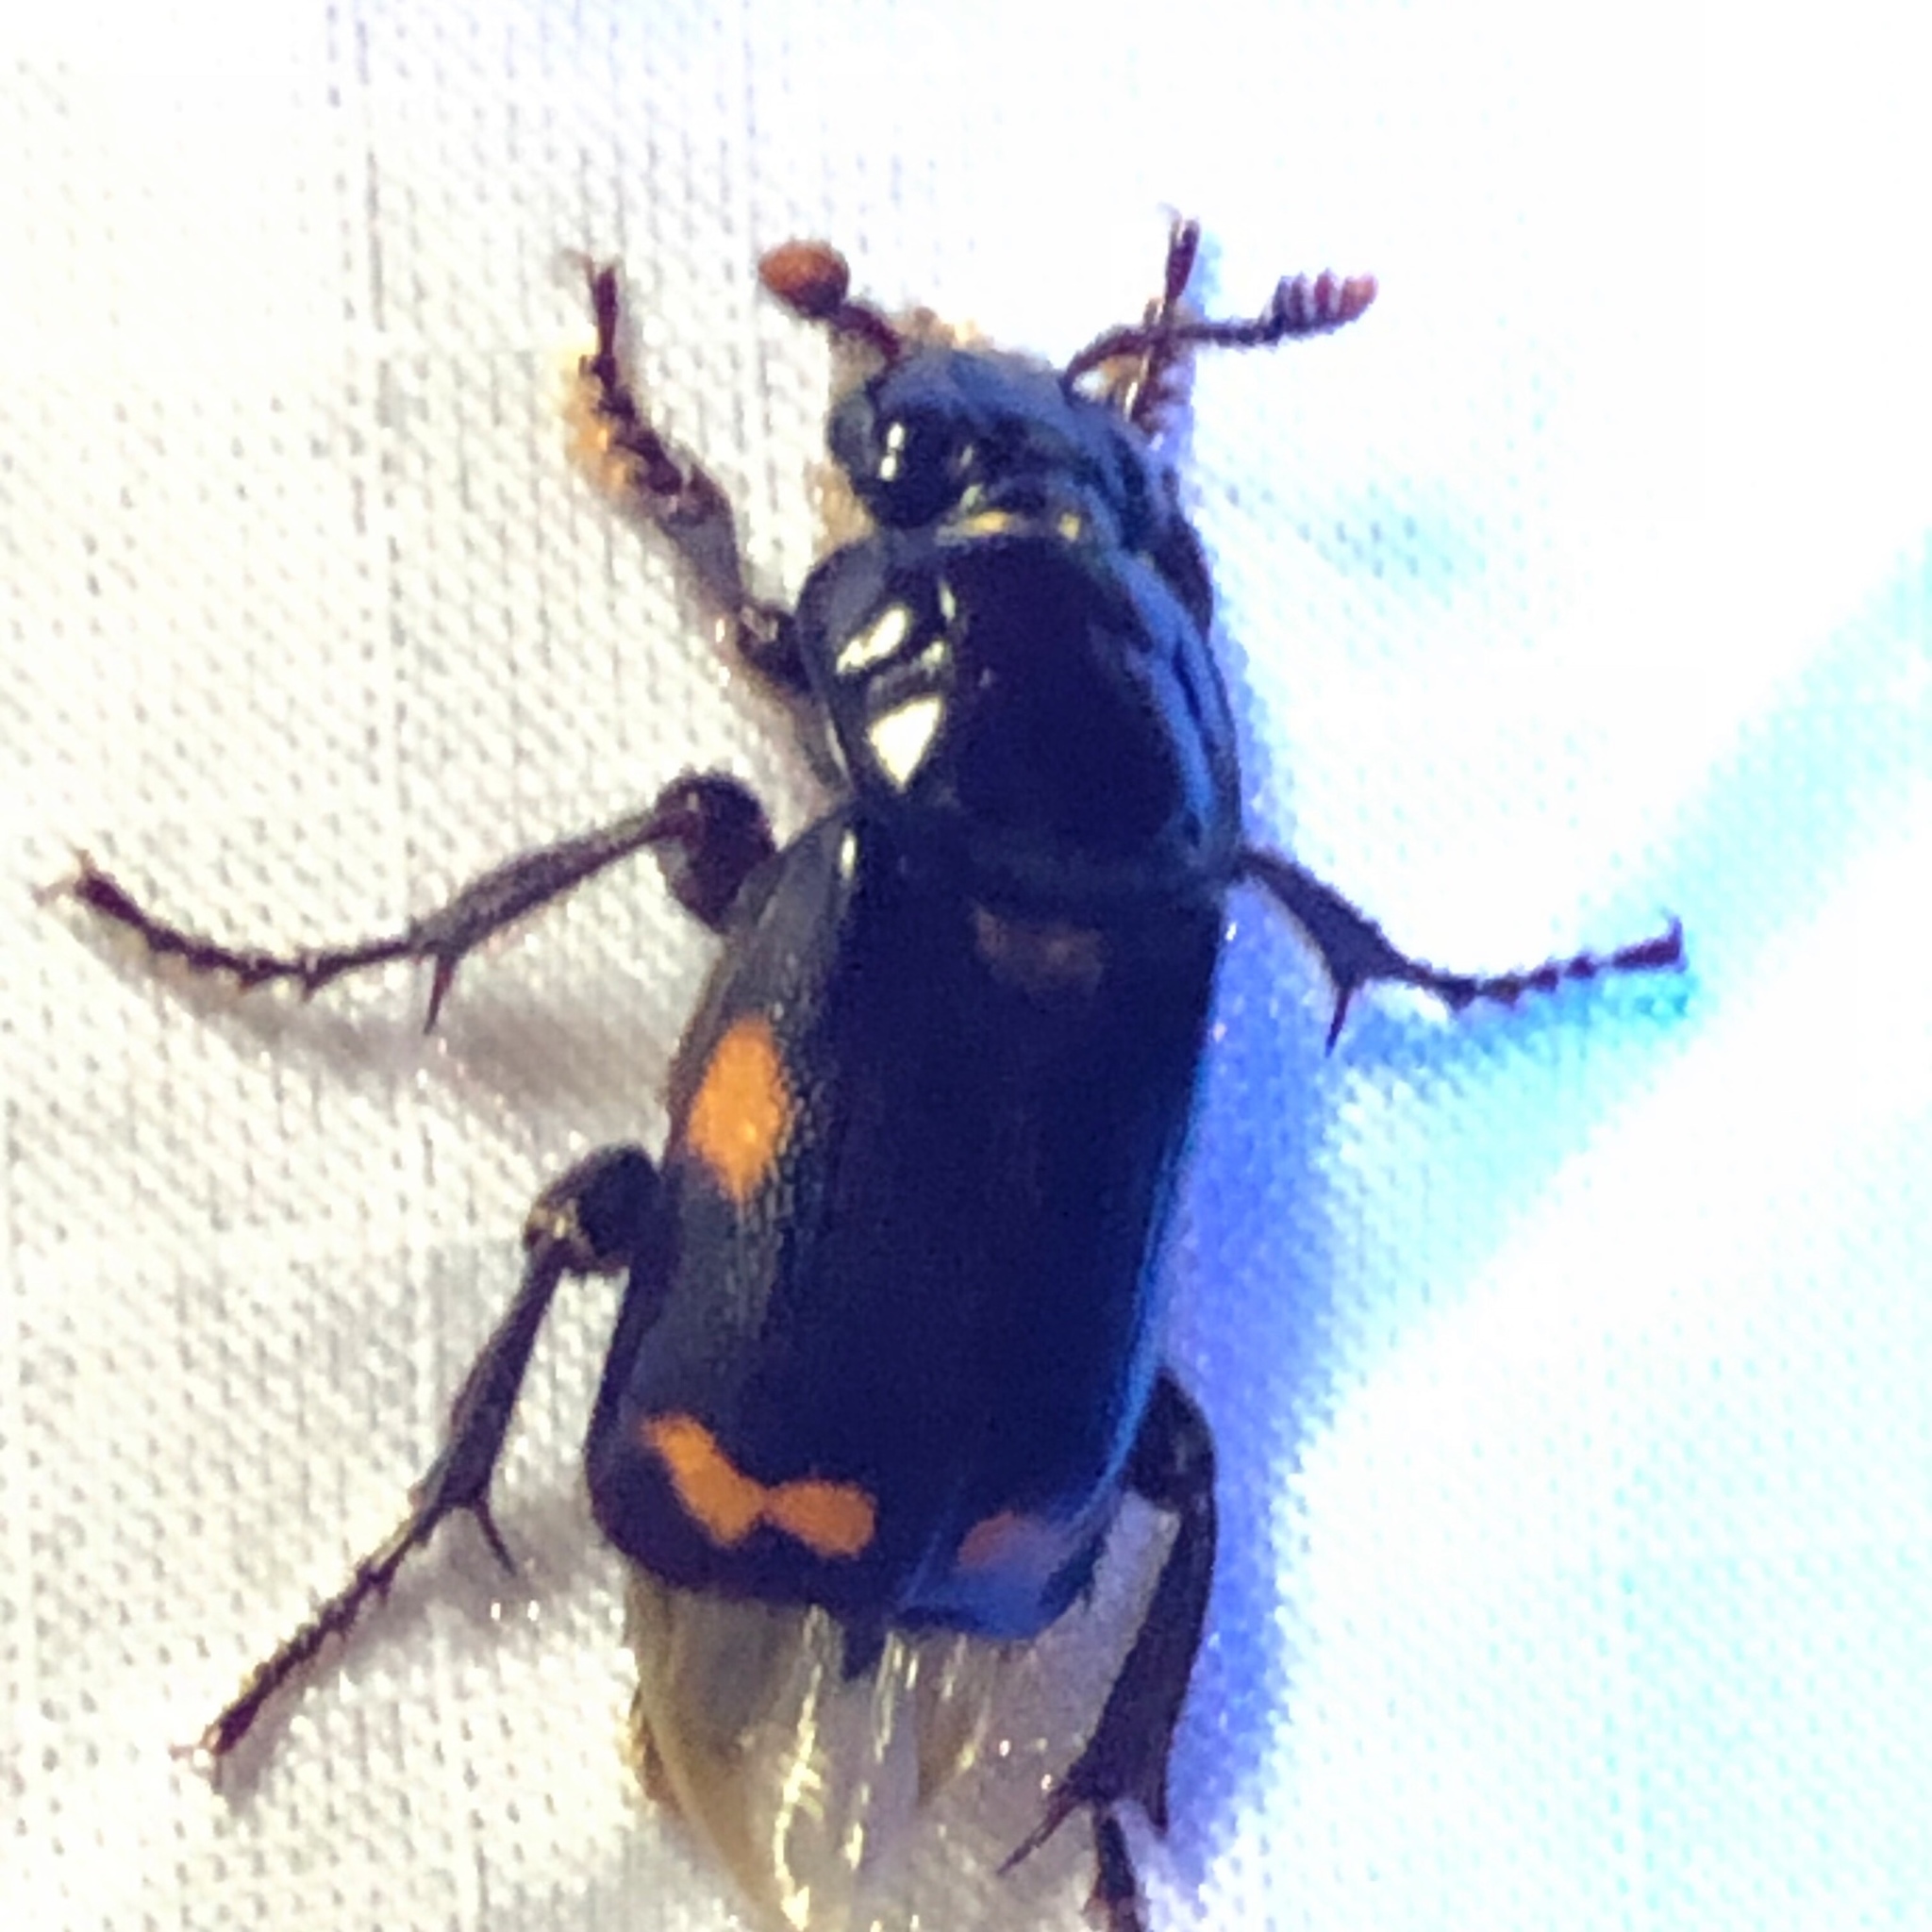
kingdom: Animalia
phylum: Arthropoda
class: Insecta
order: Coleoptera
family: Staphylinidae
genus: Nicrophorus
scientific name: Nicrophorus pustulatus
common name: Pustulated carrion beetle
